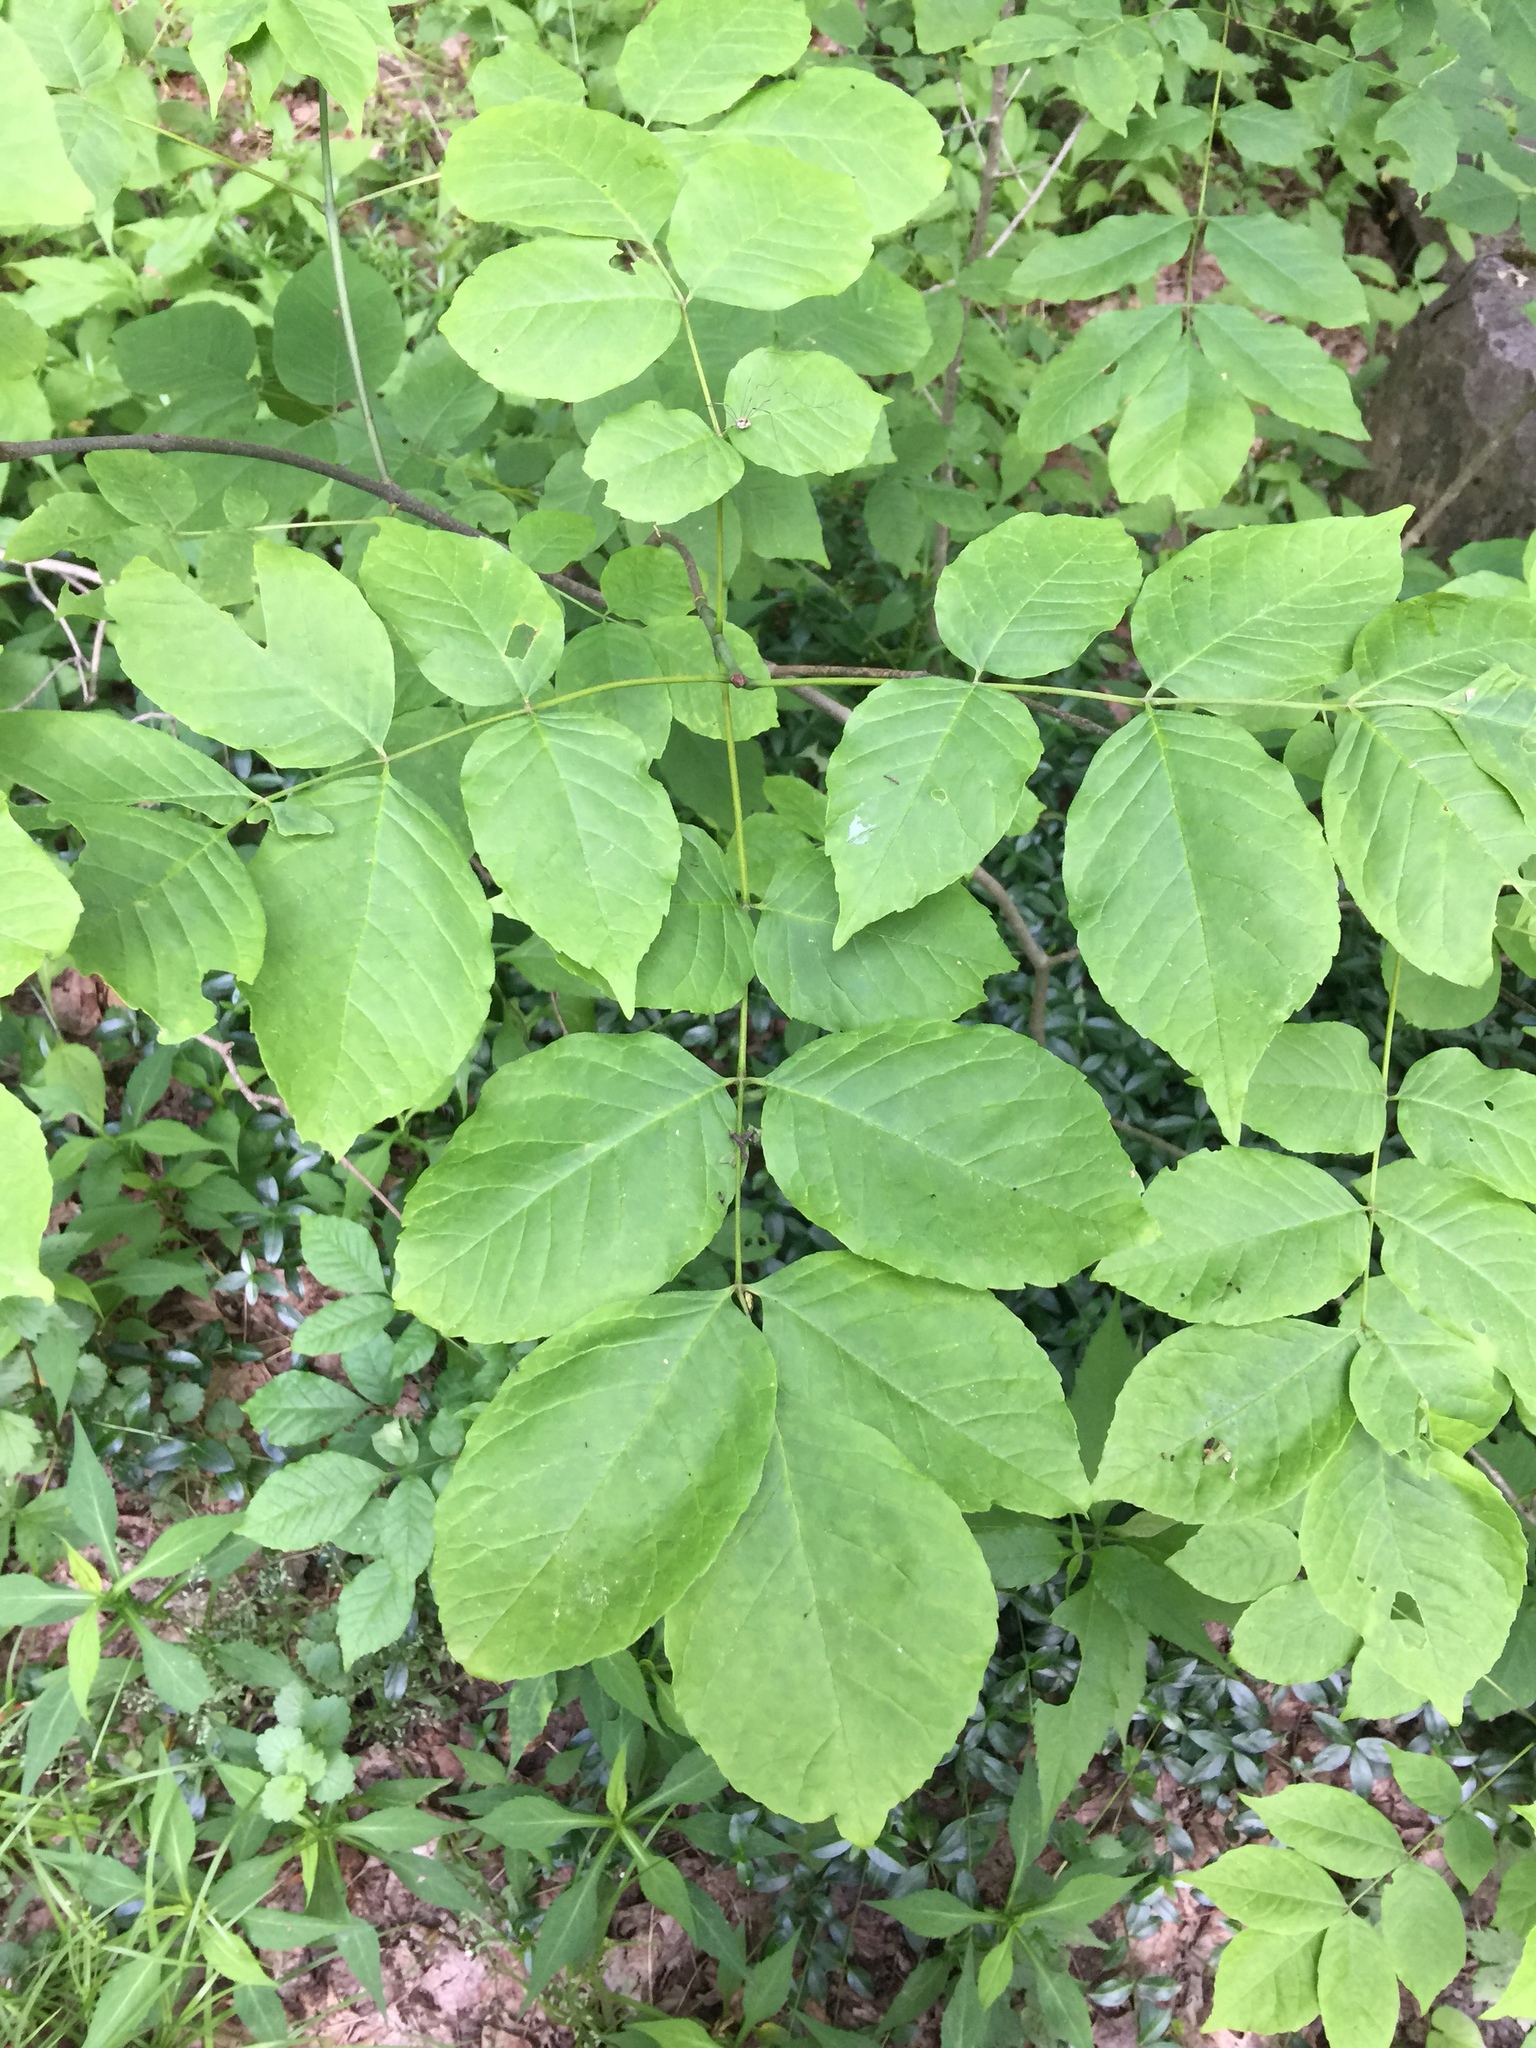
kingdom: Plantae
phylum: Tracheophyta
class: Magnoliopsida
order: Lamiales
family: Oleaceae
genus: Fraxinus
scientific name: Fraxinus americana
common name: White ash
